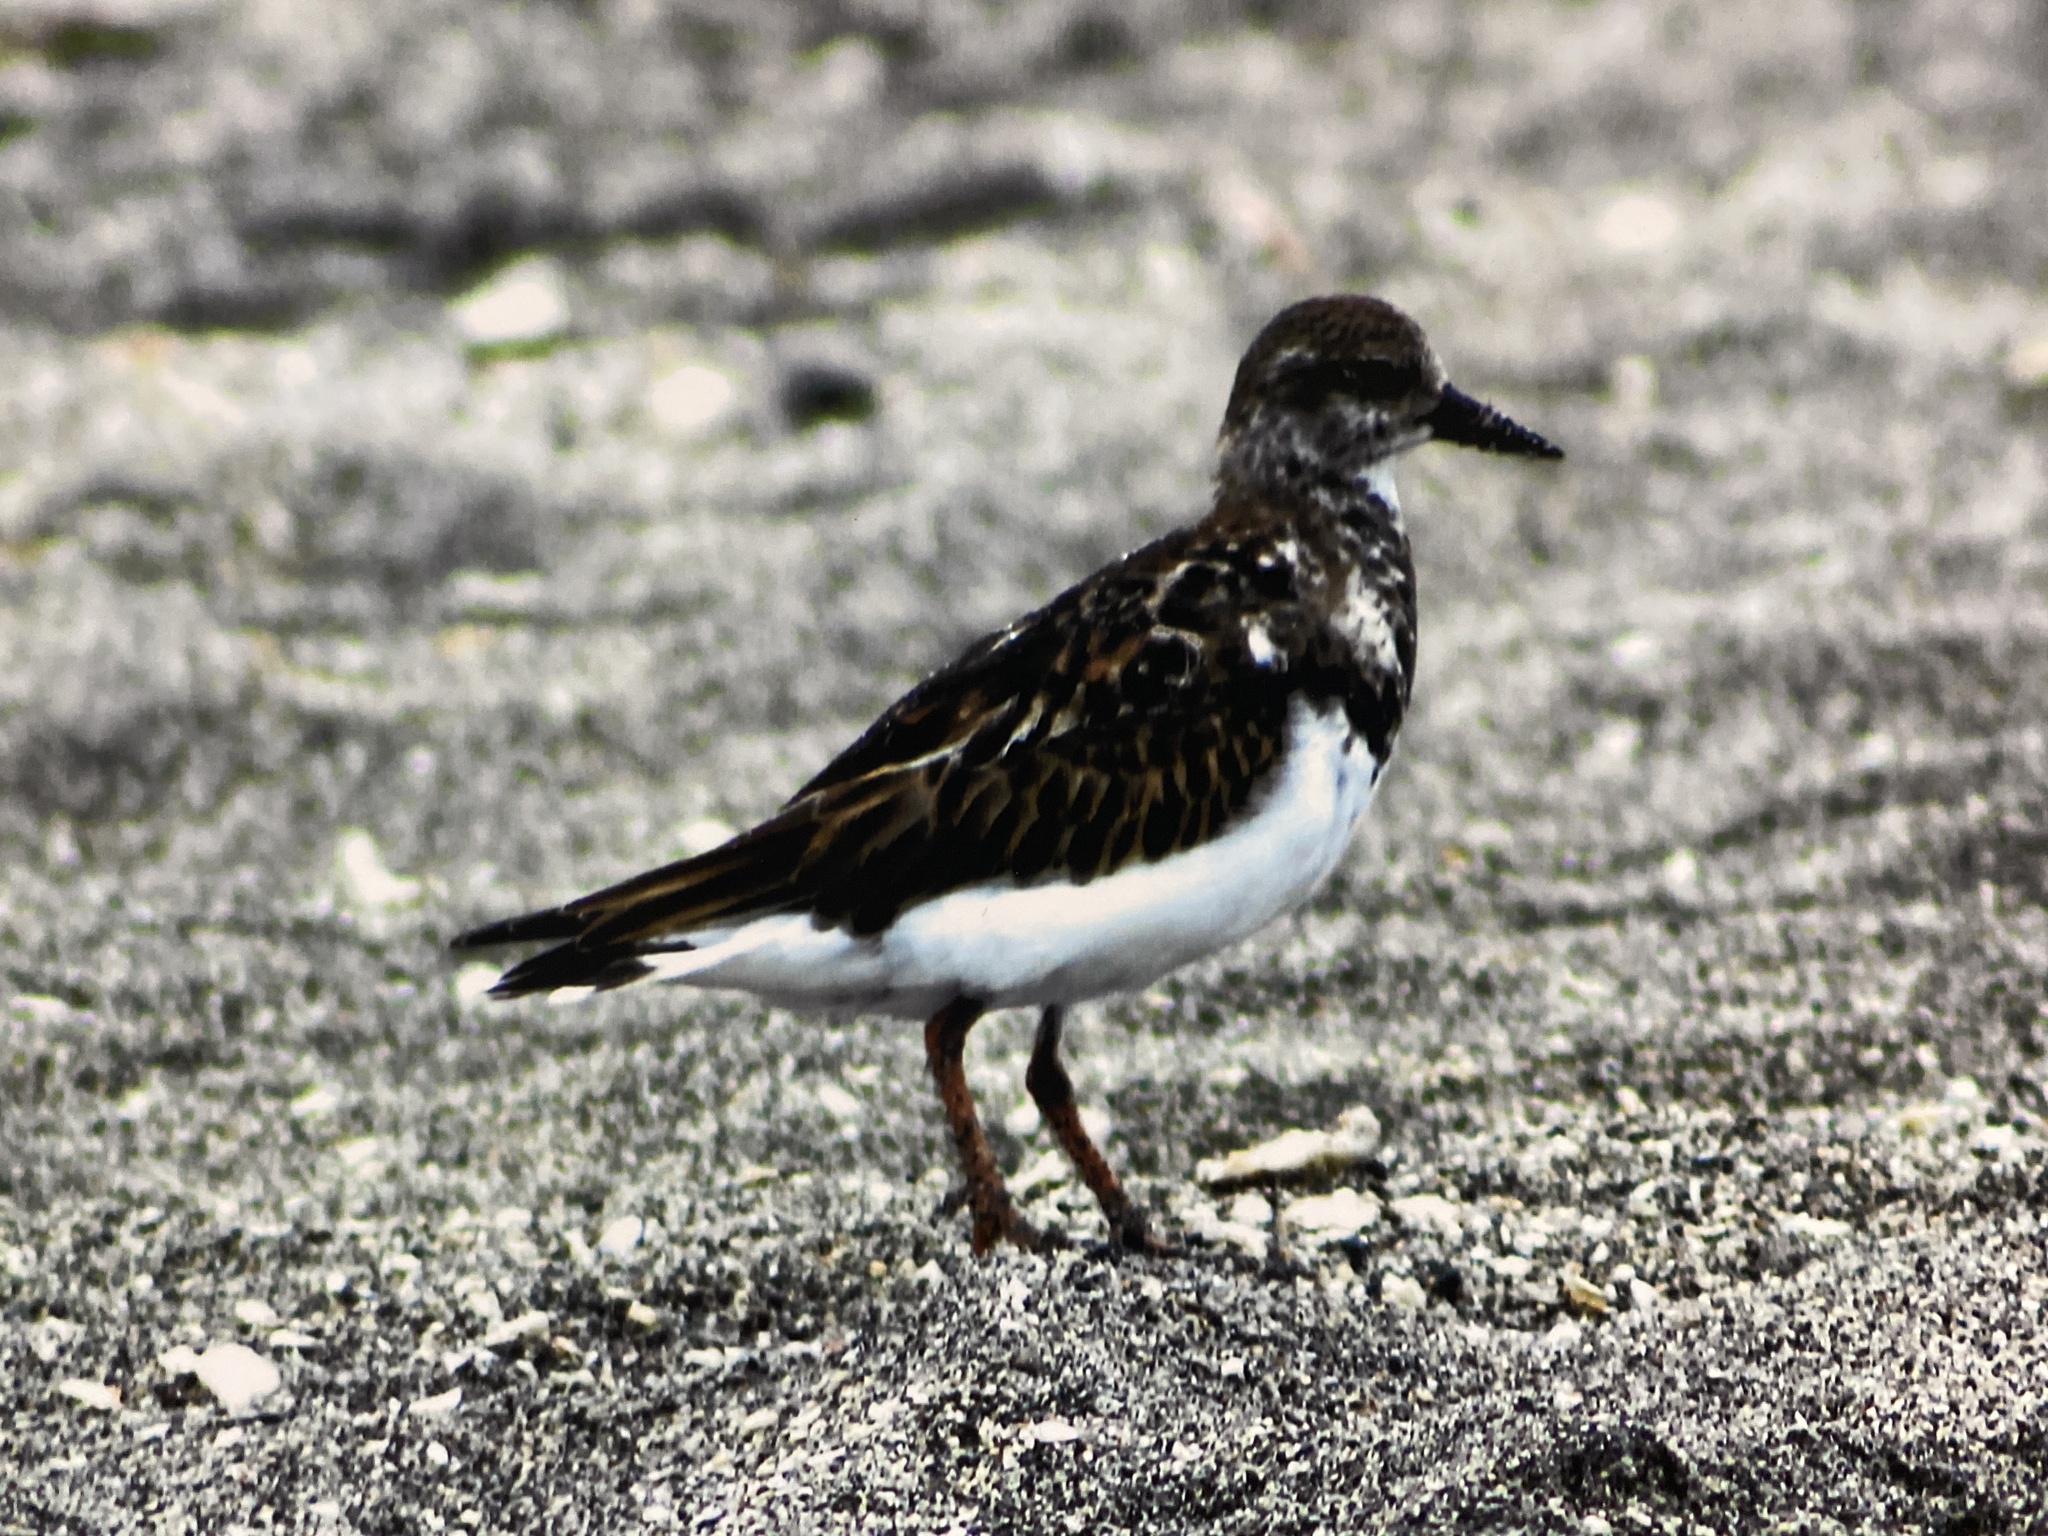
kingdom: Animalia
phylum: Chordata
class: Aves
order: Charadriiformes
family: Scolopacidae
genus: Arenaria
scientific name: Arenaria interpres
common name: Ruddy turnstone
